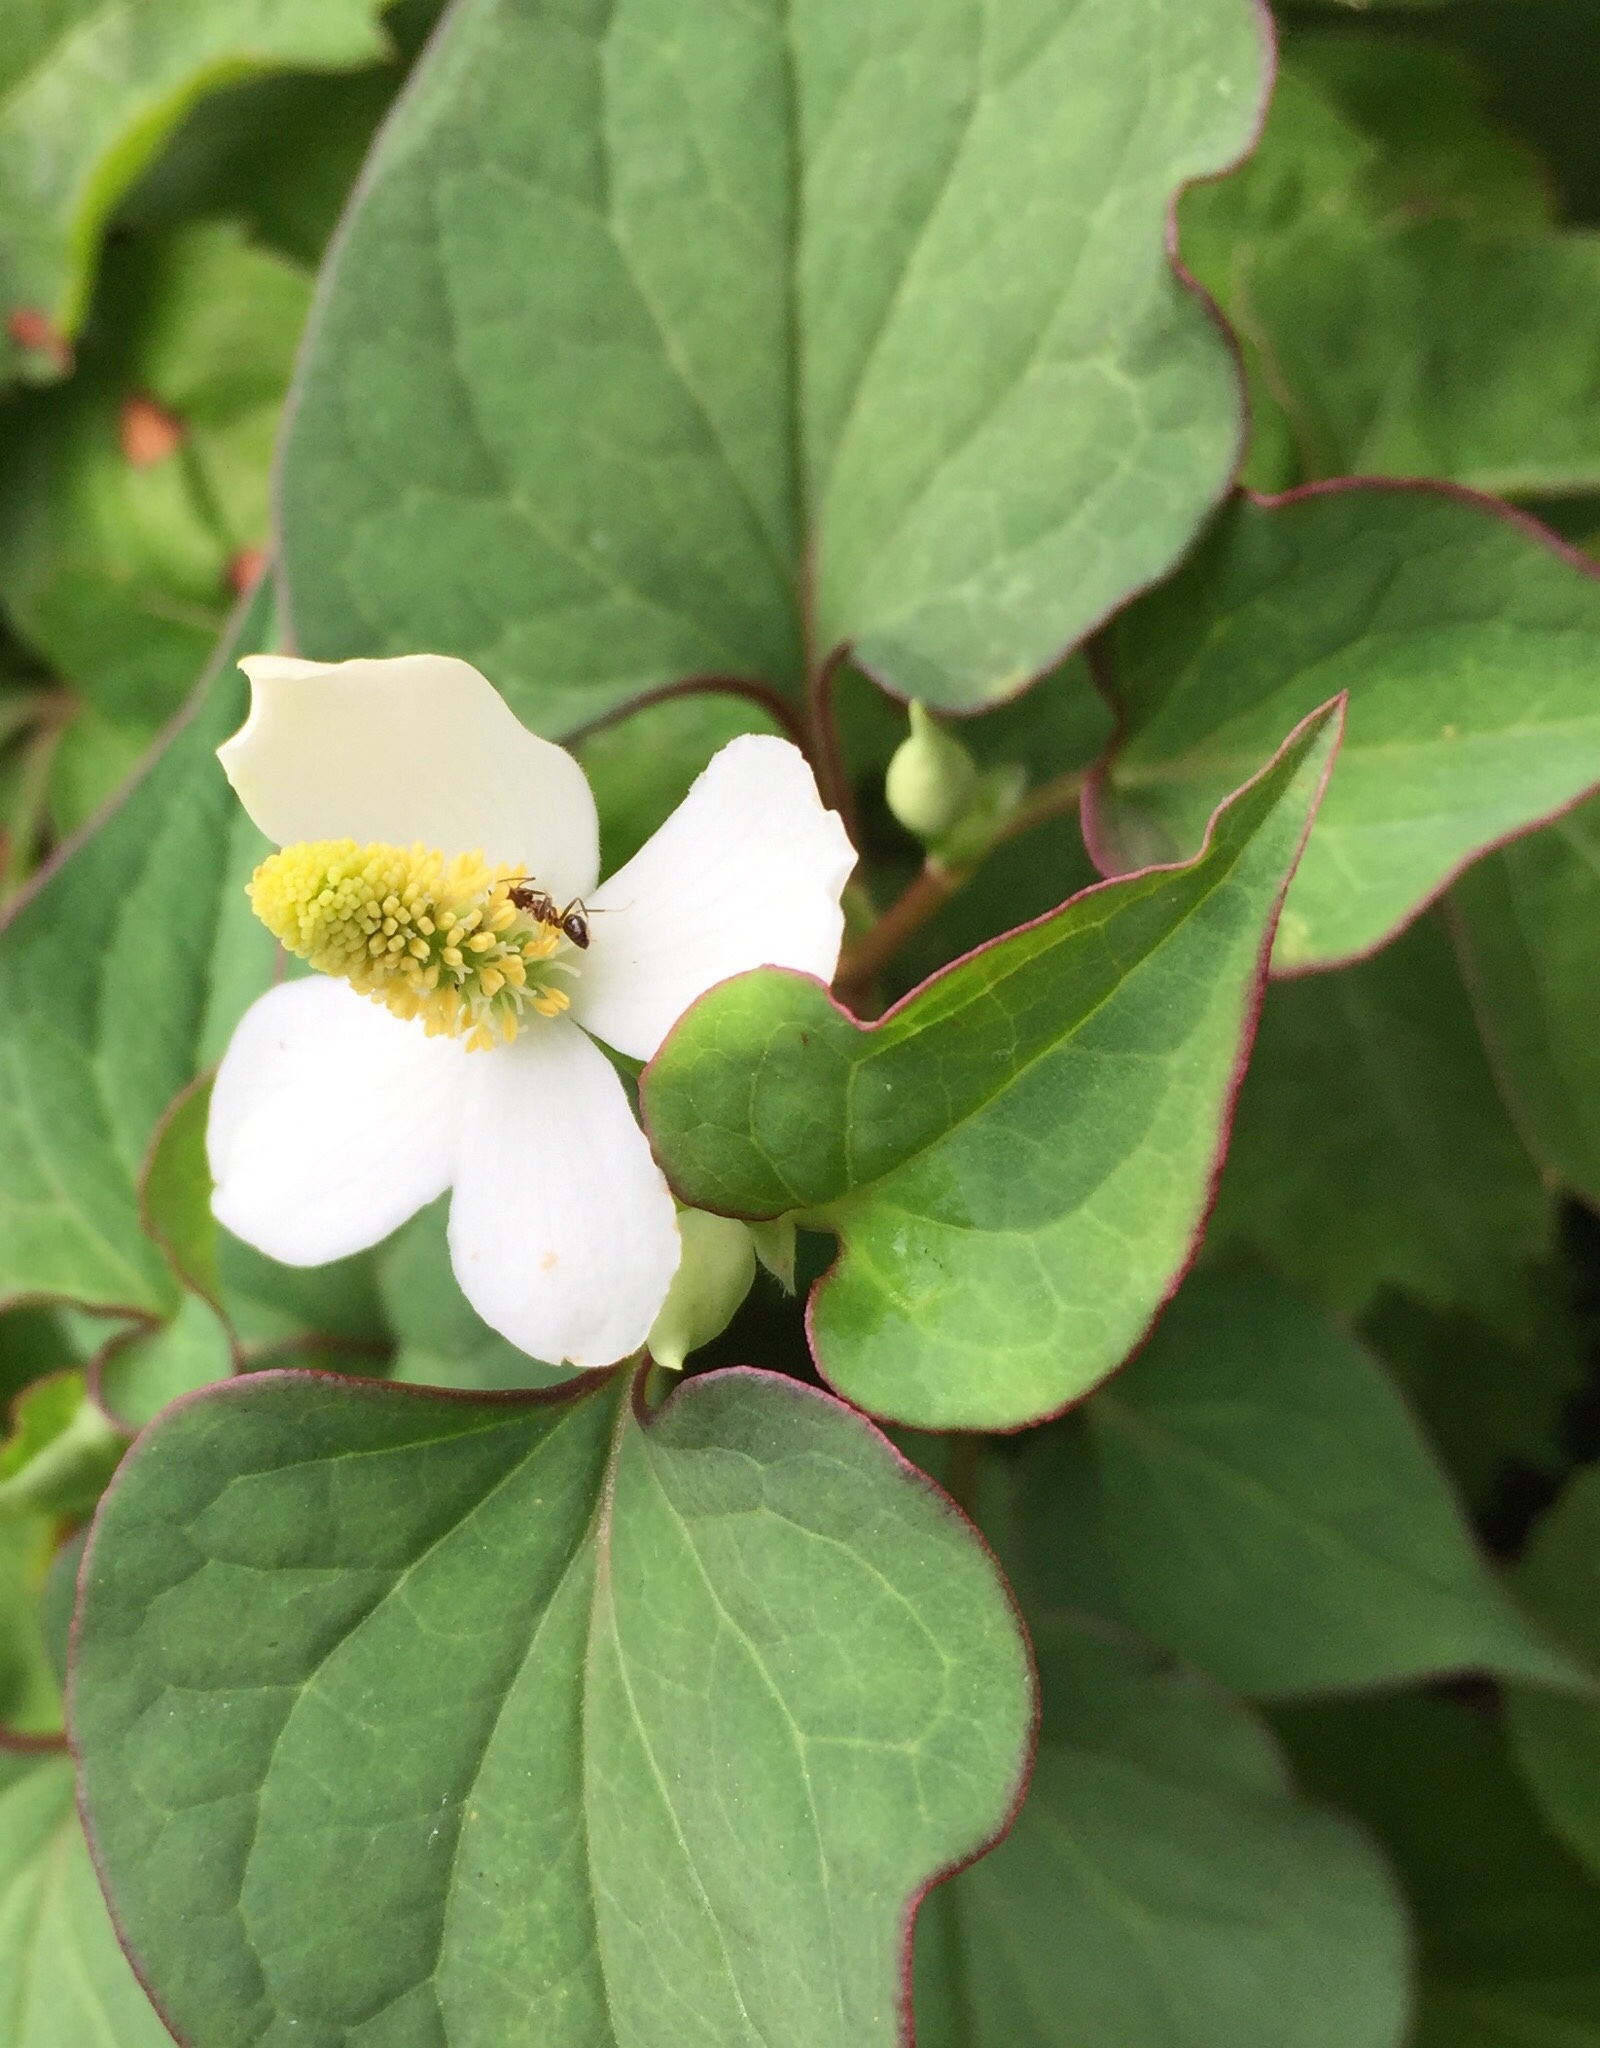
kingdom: Animalia
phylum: Arthropoda
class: Insecta
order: Hymenoptera
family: Formicidae
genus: Lasius
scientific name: Lasius emarginatus
